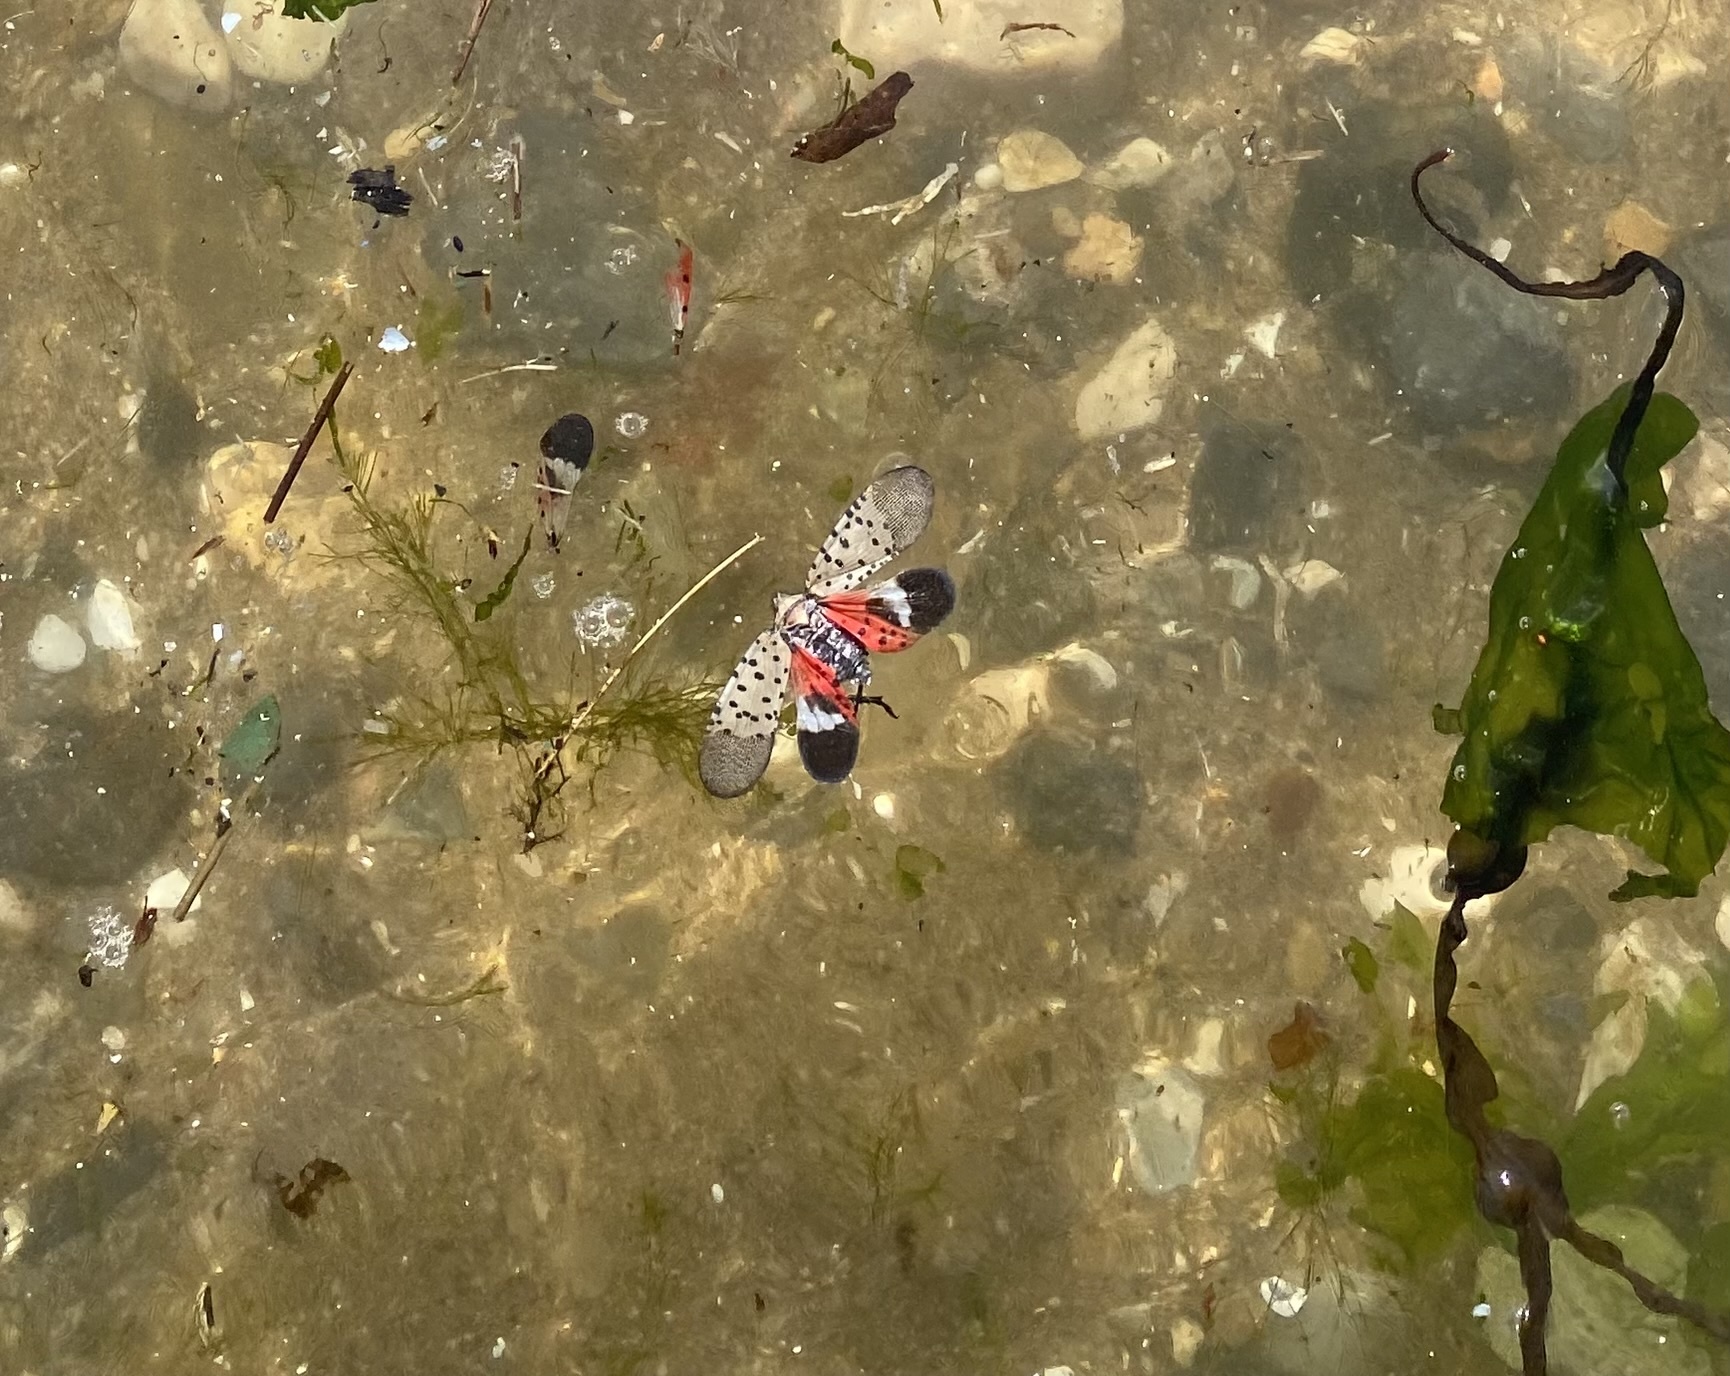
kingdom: Animalia
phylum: Arthropoda
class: Insecta
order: Hemiptera
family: Fulgoridae
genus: Lycorma
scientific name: Lycorma delicatula
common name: Spotted lanternfly
